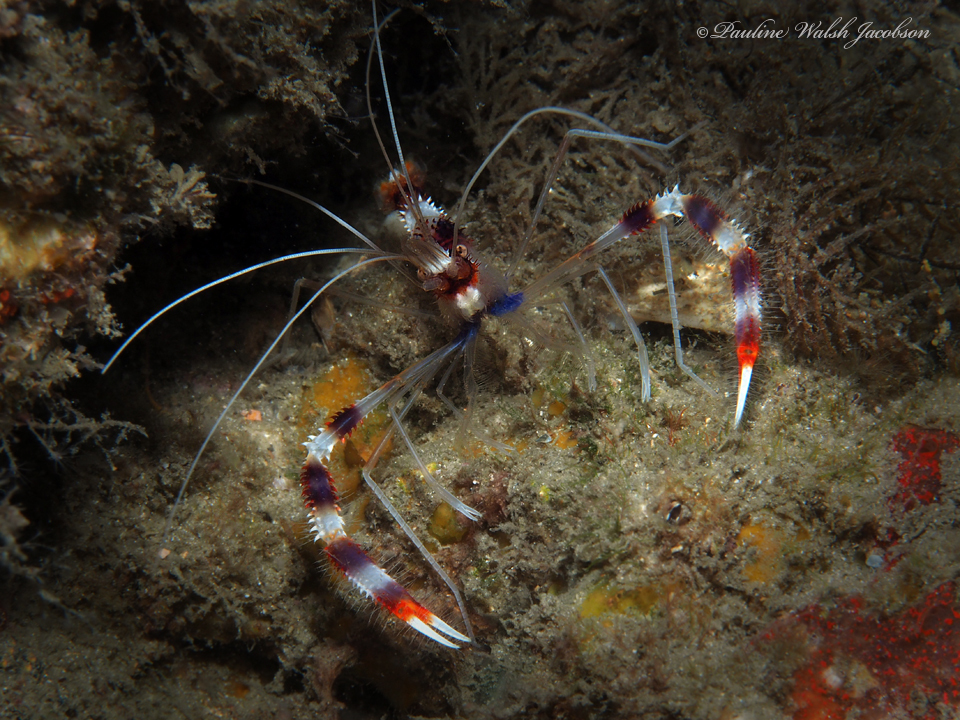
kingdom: Animalia
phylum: Arthropoda
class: Malacostraca
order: Decapoda
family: Stenopodidae
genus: Stenopus
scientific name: Stenopus hispidus
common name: Banded coral shrimp
